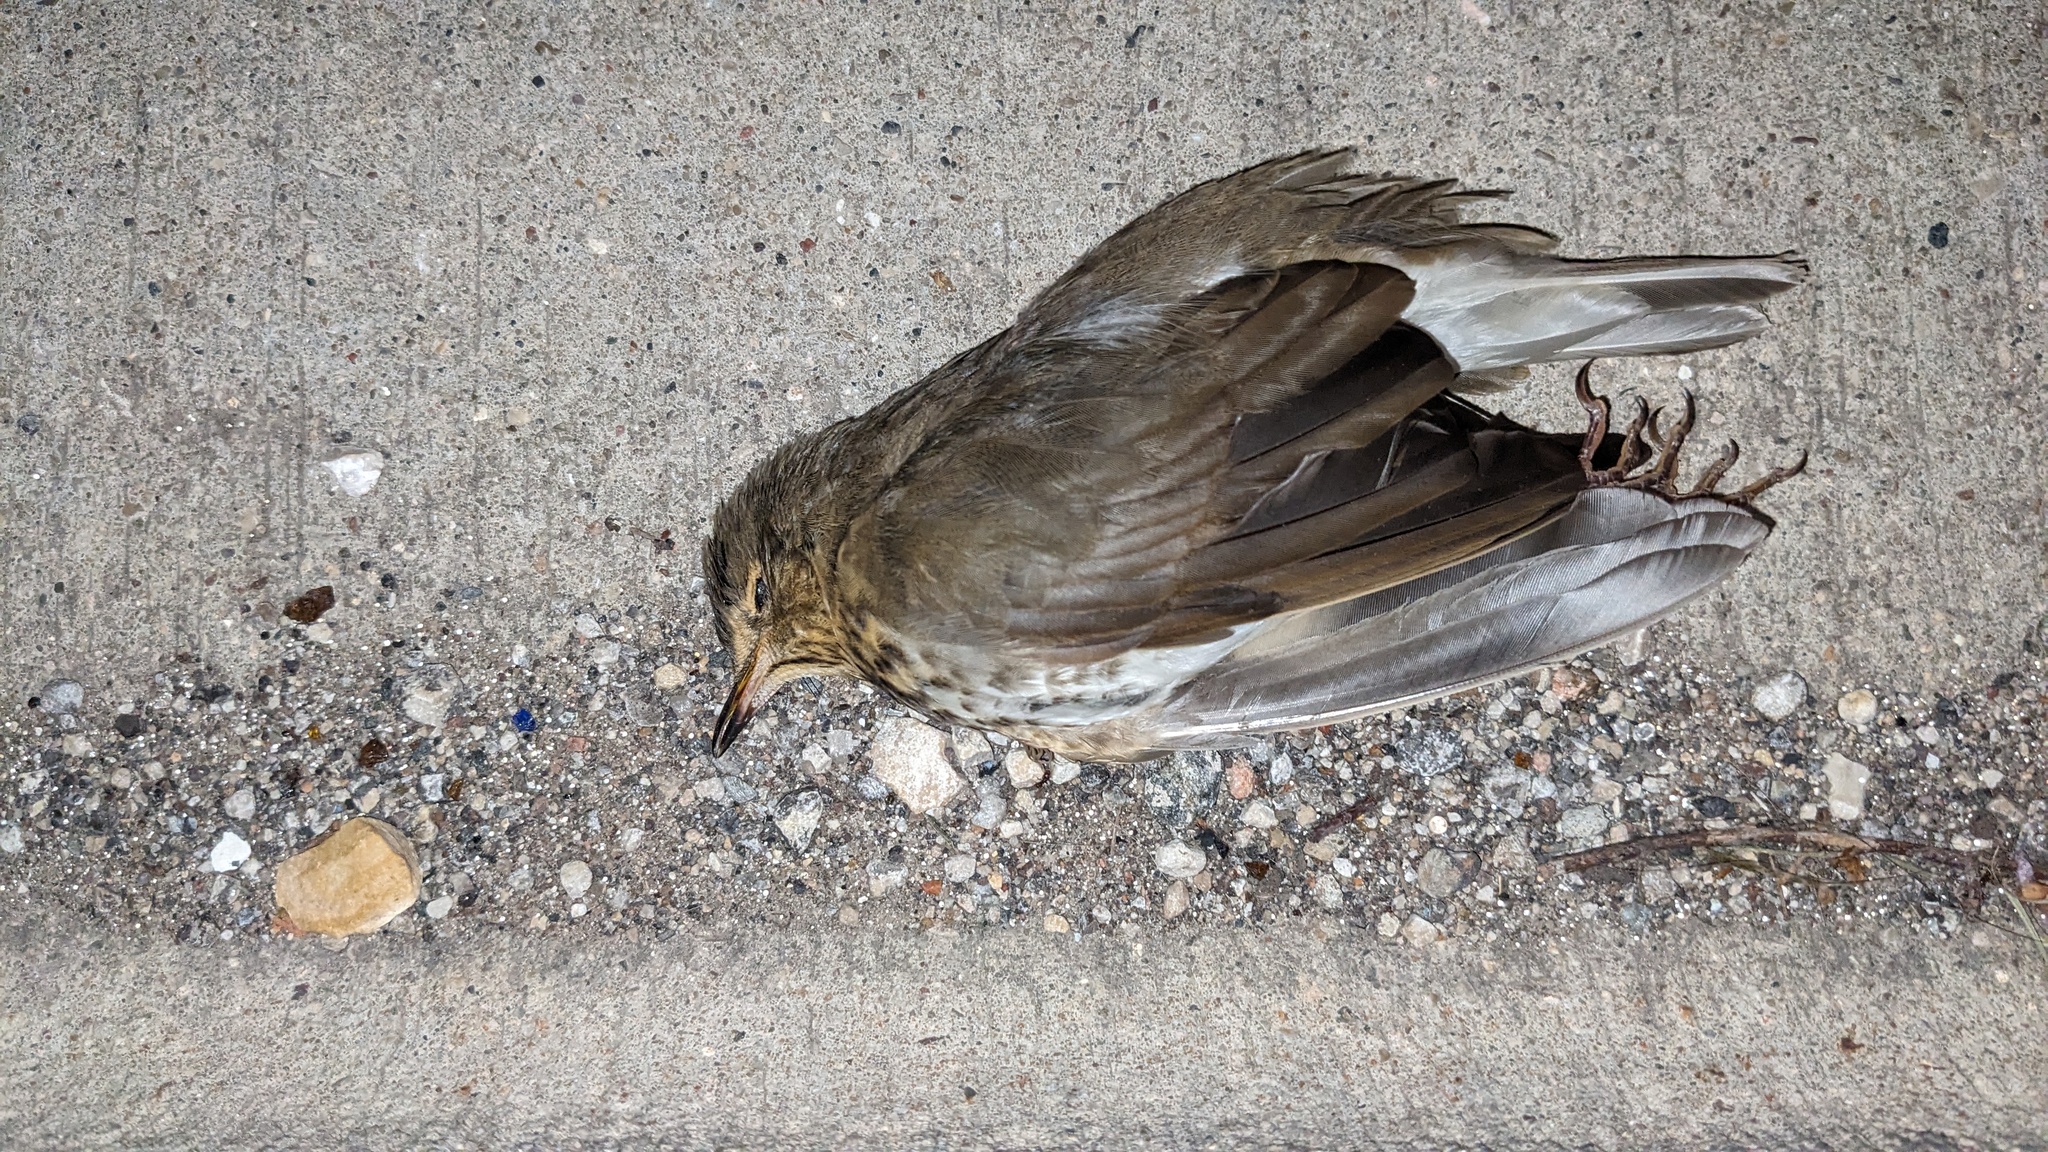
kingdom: Animalia
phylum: Chordata
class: Aves
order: Passeriformes
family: Turdidae
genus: Catharus
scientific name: Catharus ustulatus
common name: Swainson's thrush
